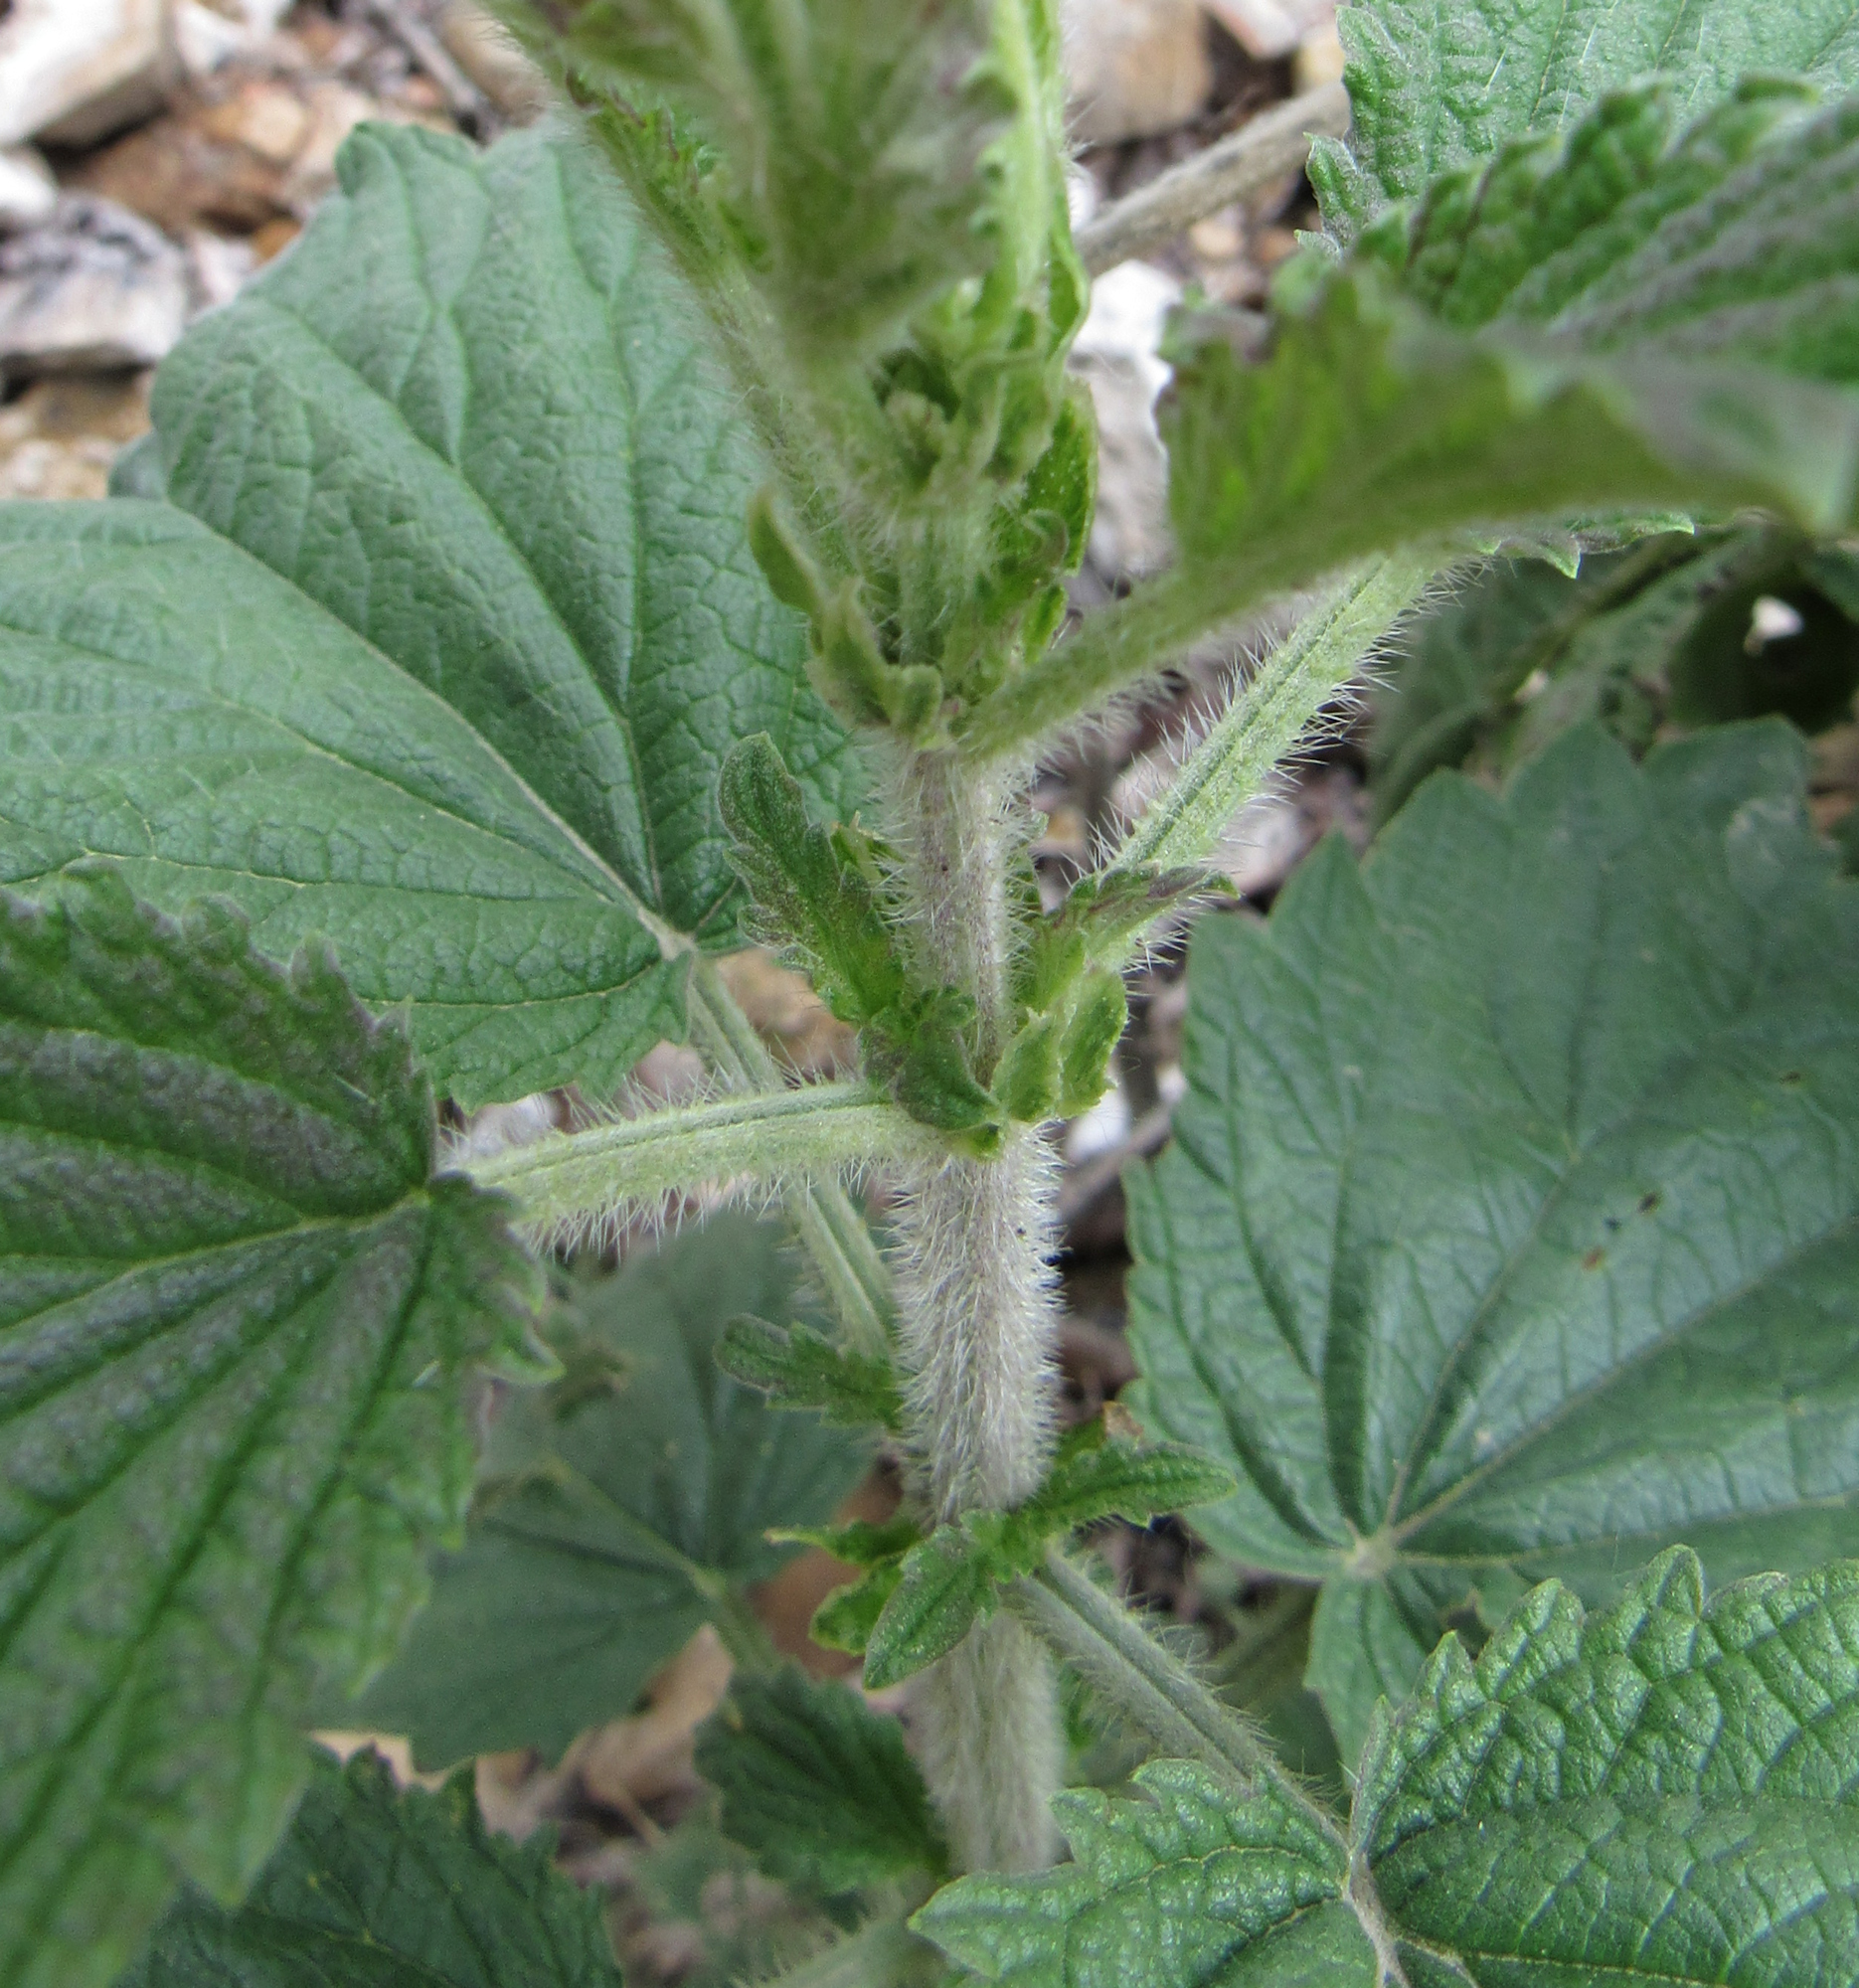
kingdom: Plantae
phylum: Tracheophyta
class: Magnoliopsida
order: Rosales
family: Urticaceae
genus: Urtica
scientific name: Urtica gracilis
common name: Slender stinging nettle
